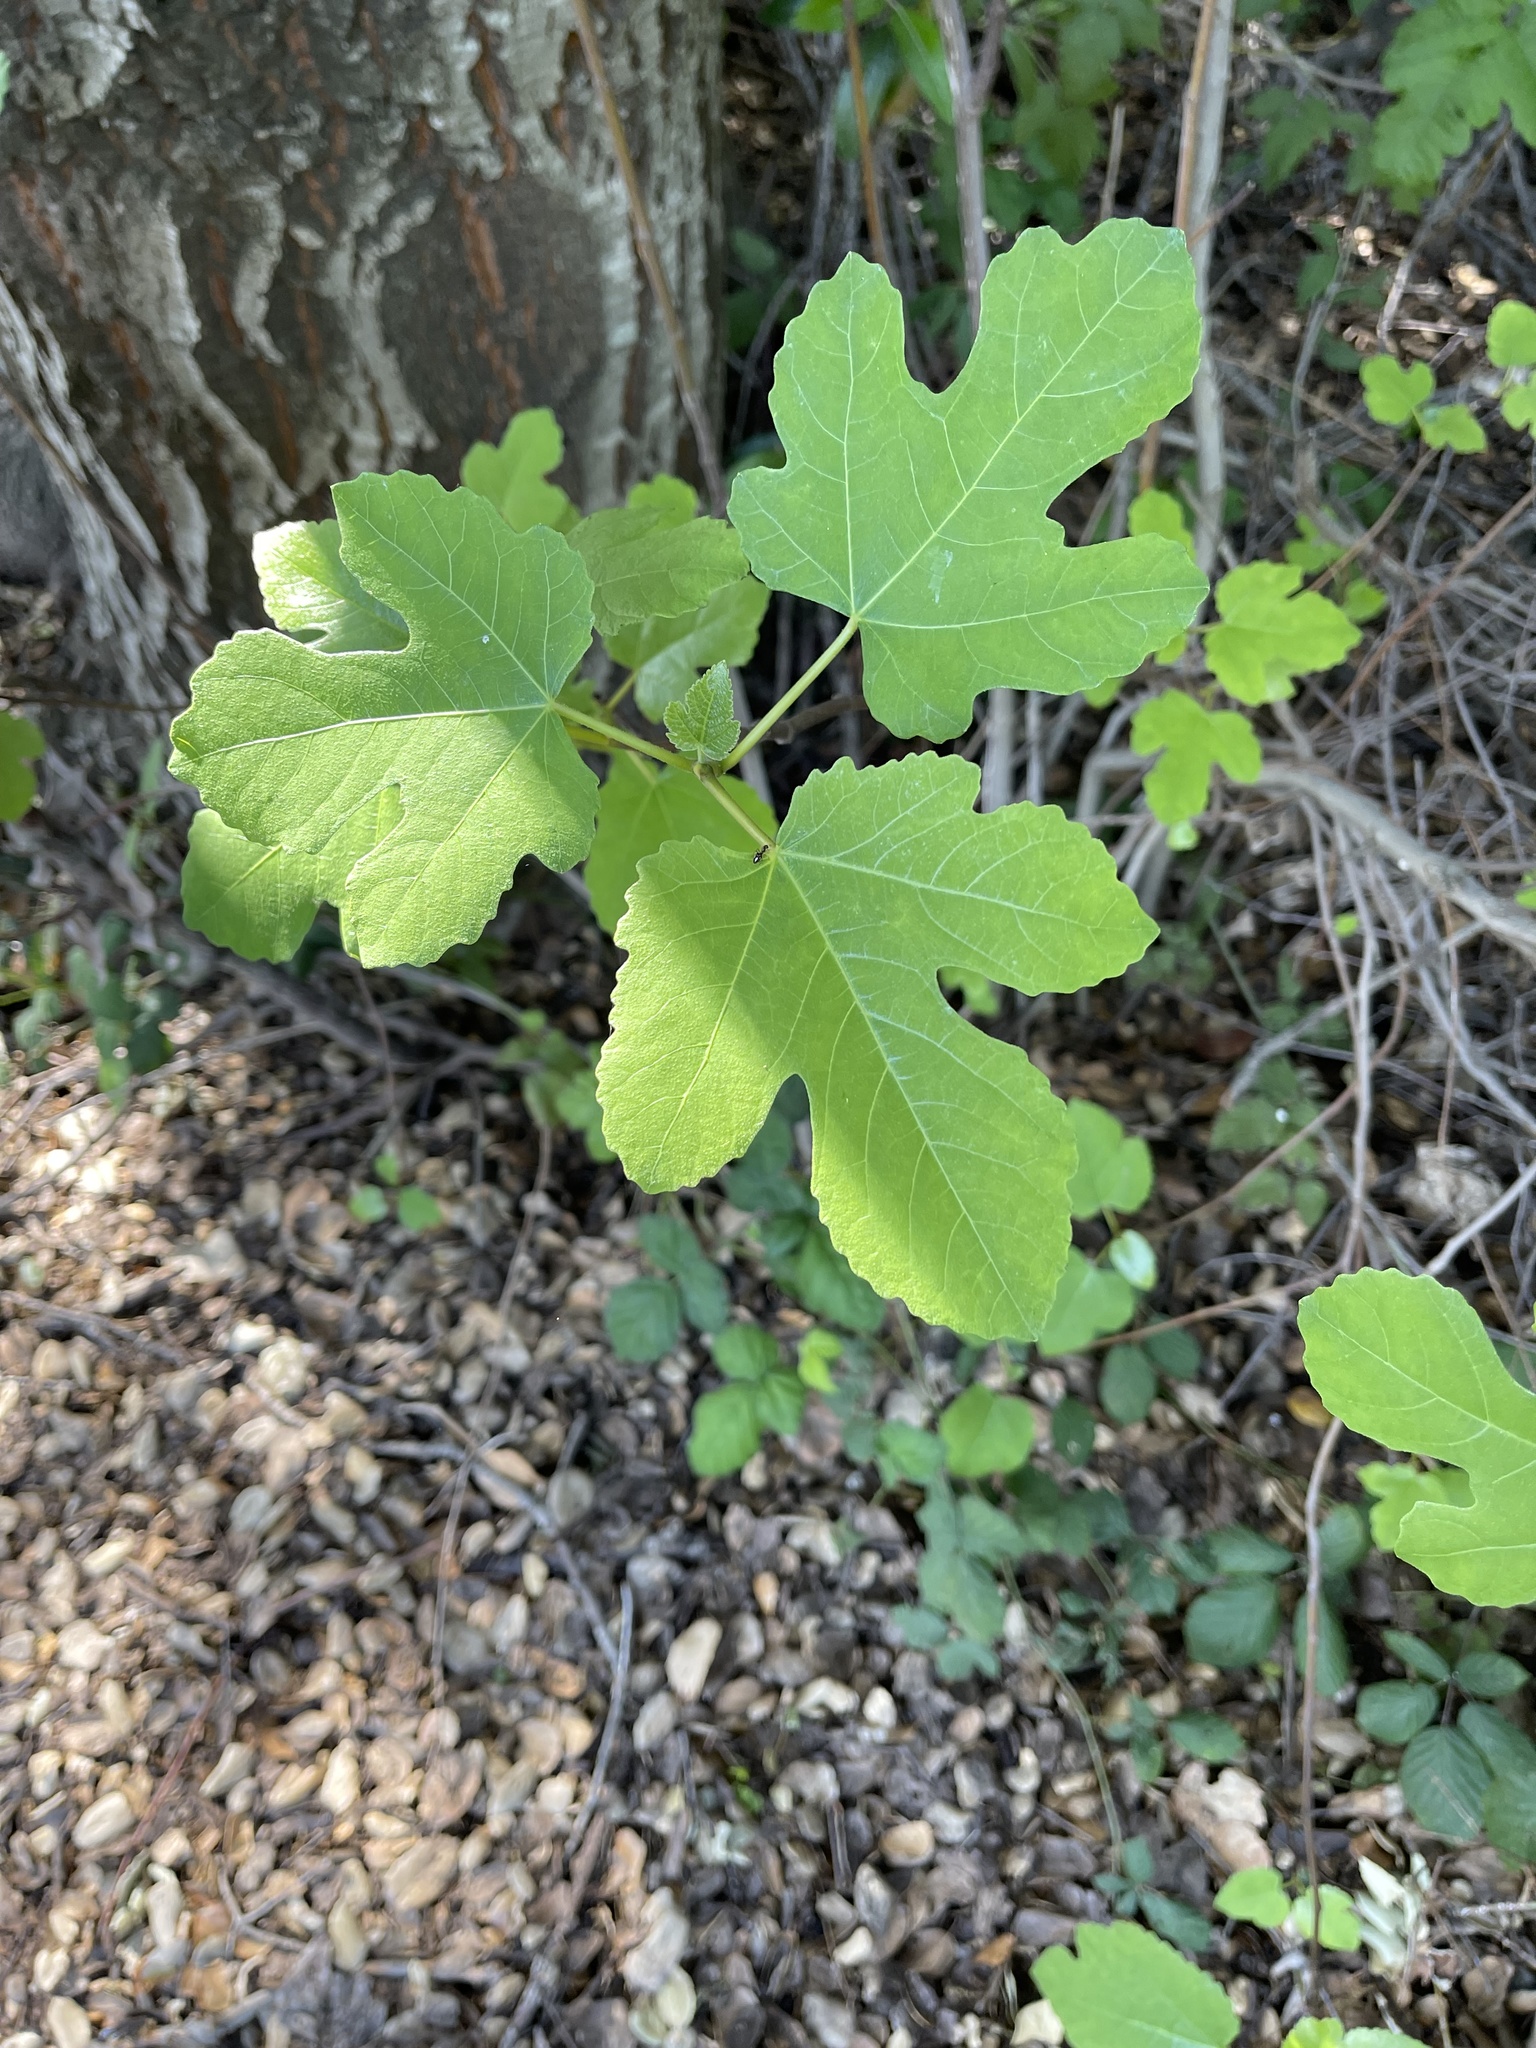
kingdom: Plantae
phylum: Tracheophyta
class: Magnoliopsida
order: Rosales
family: Moraceae
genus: Ficus
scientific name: Ficus carica
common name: Fig
